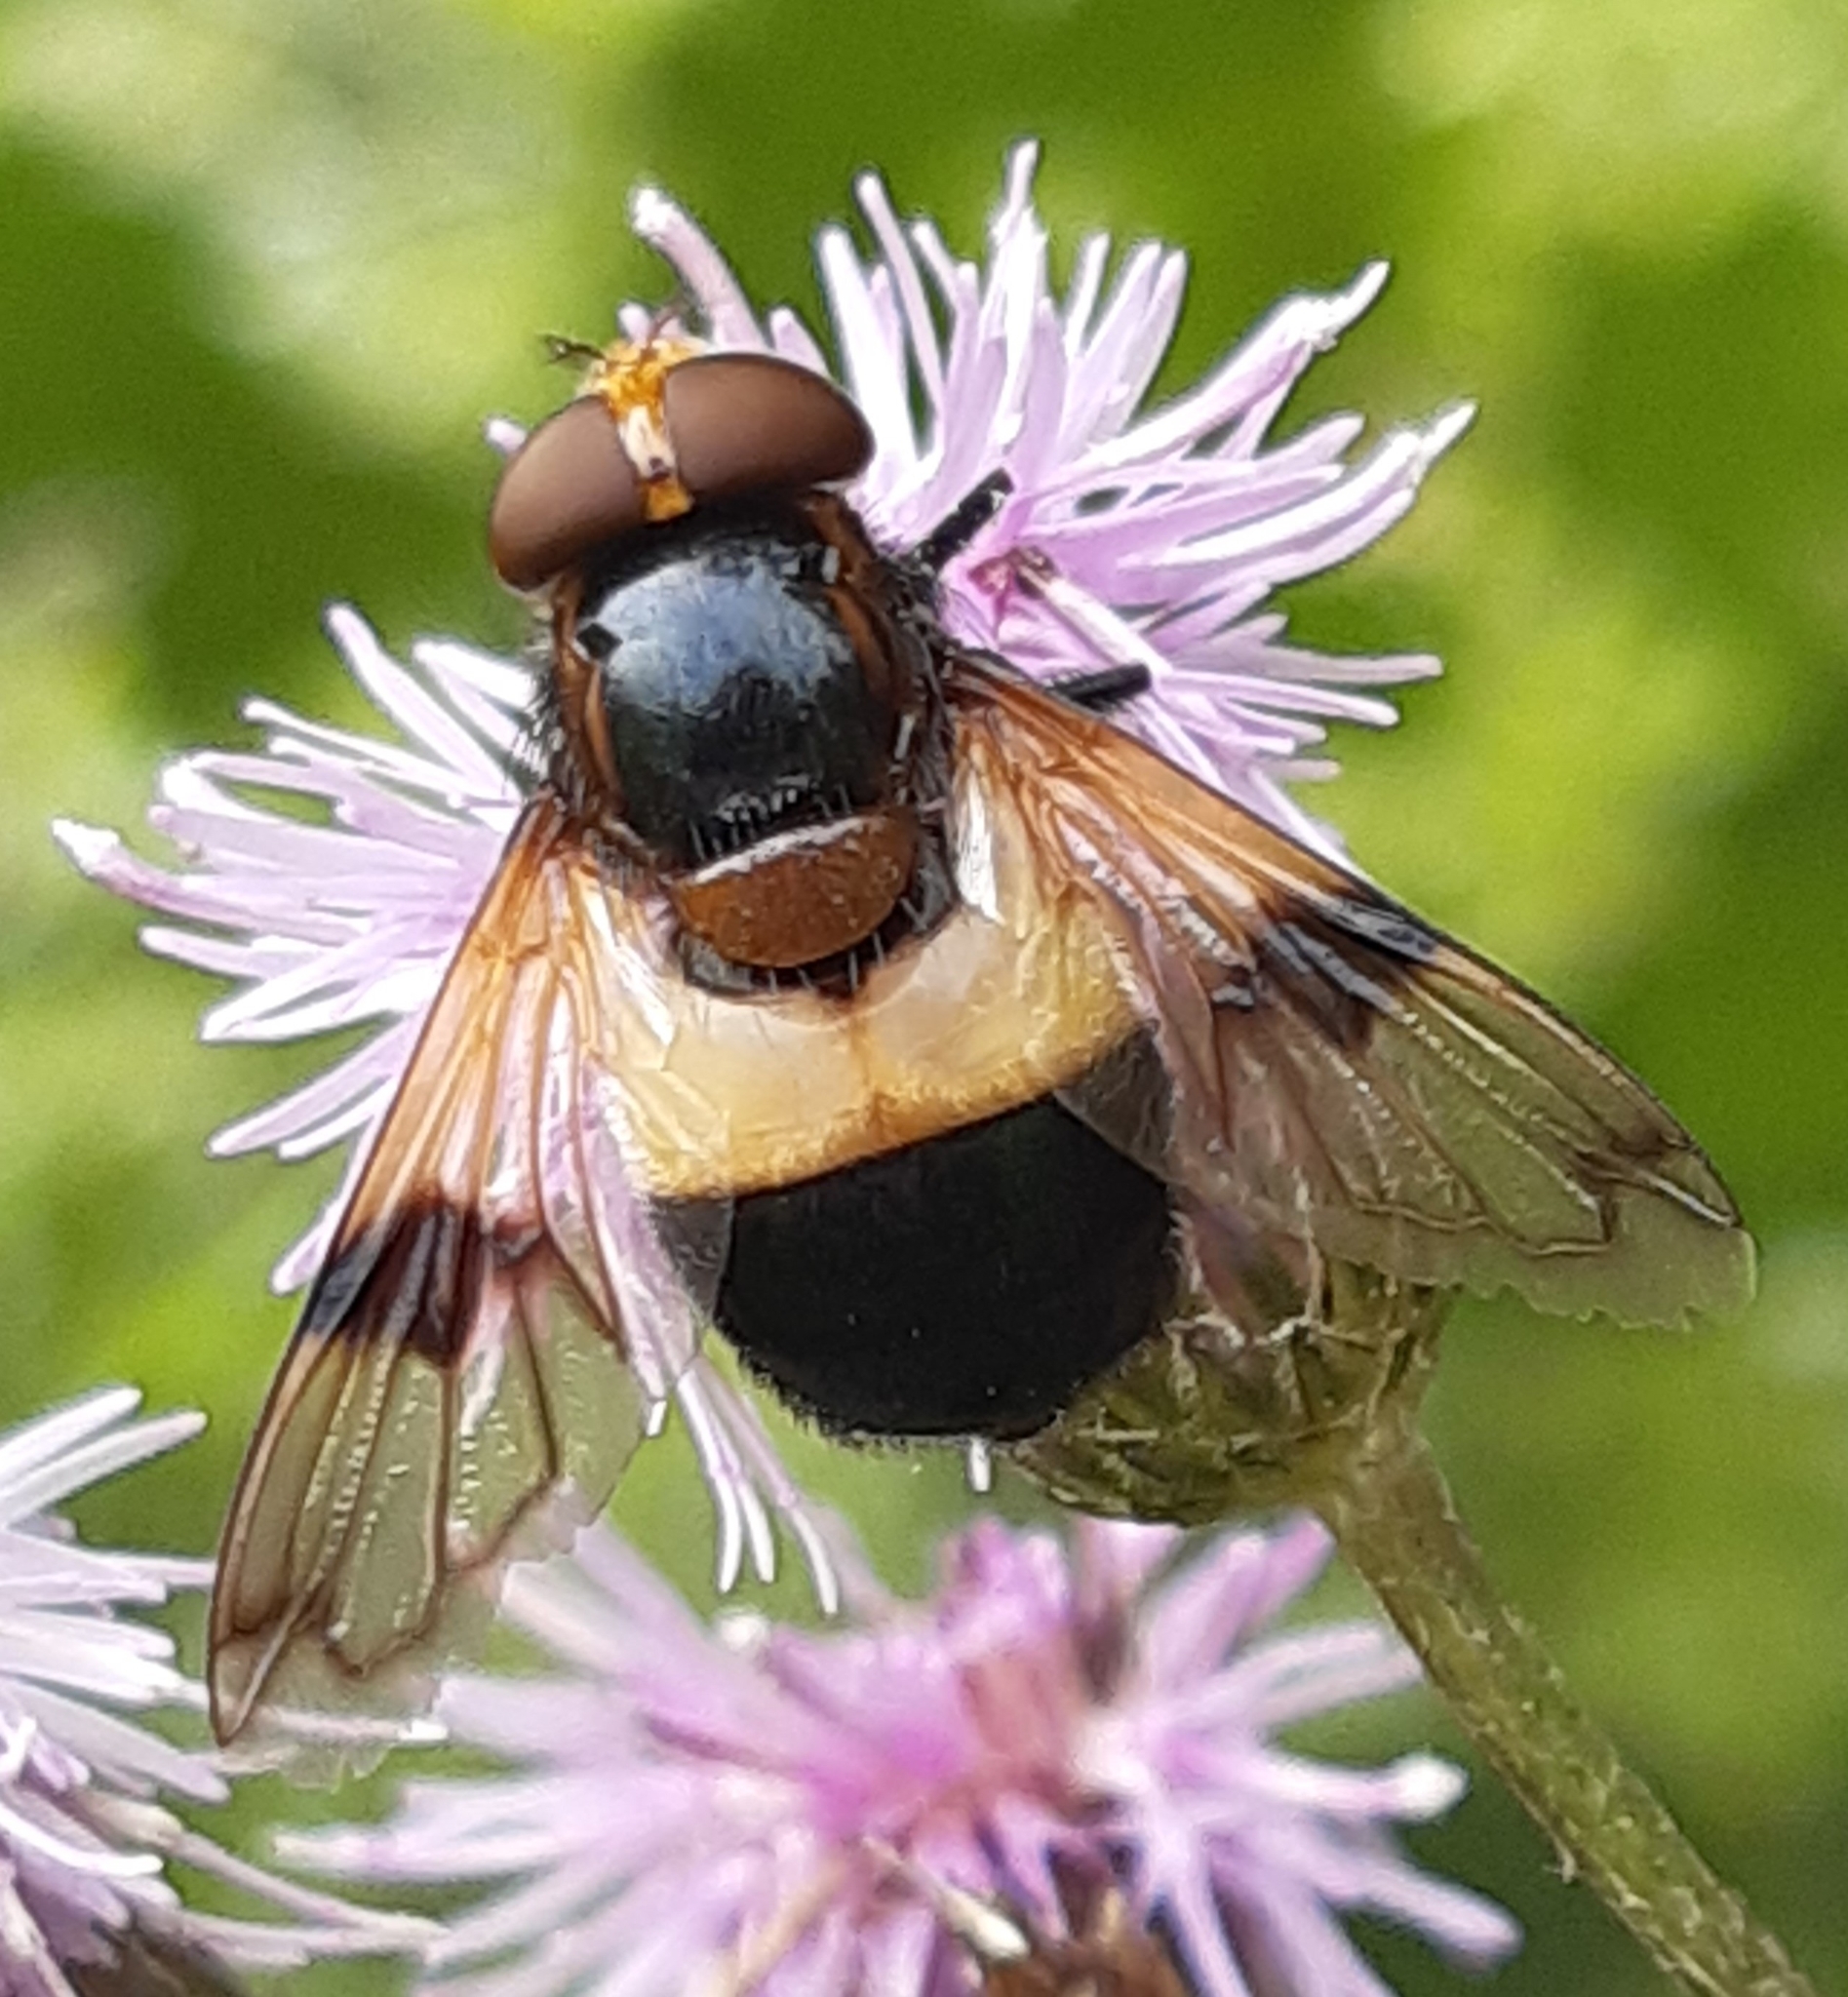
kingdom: Animalia
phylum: Arthropoda
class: Insecta
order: Diptera
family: Syrphidae
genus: Volucella
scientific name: Volucella pellucens
